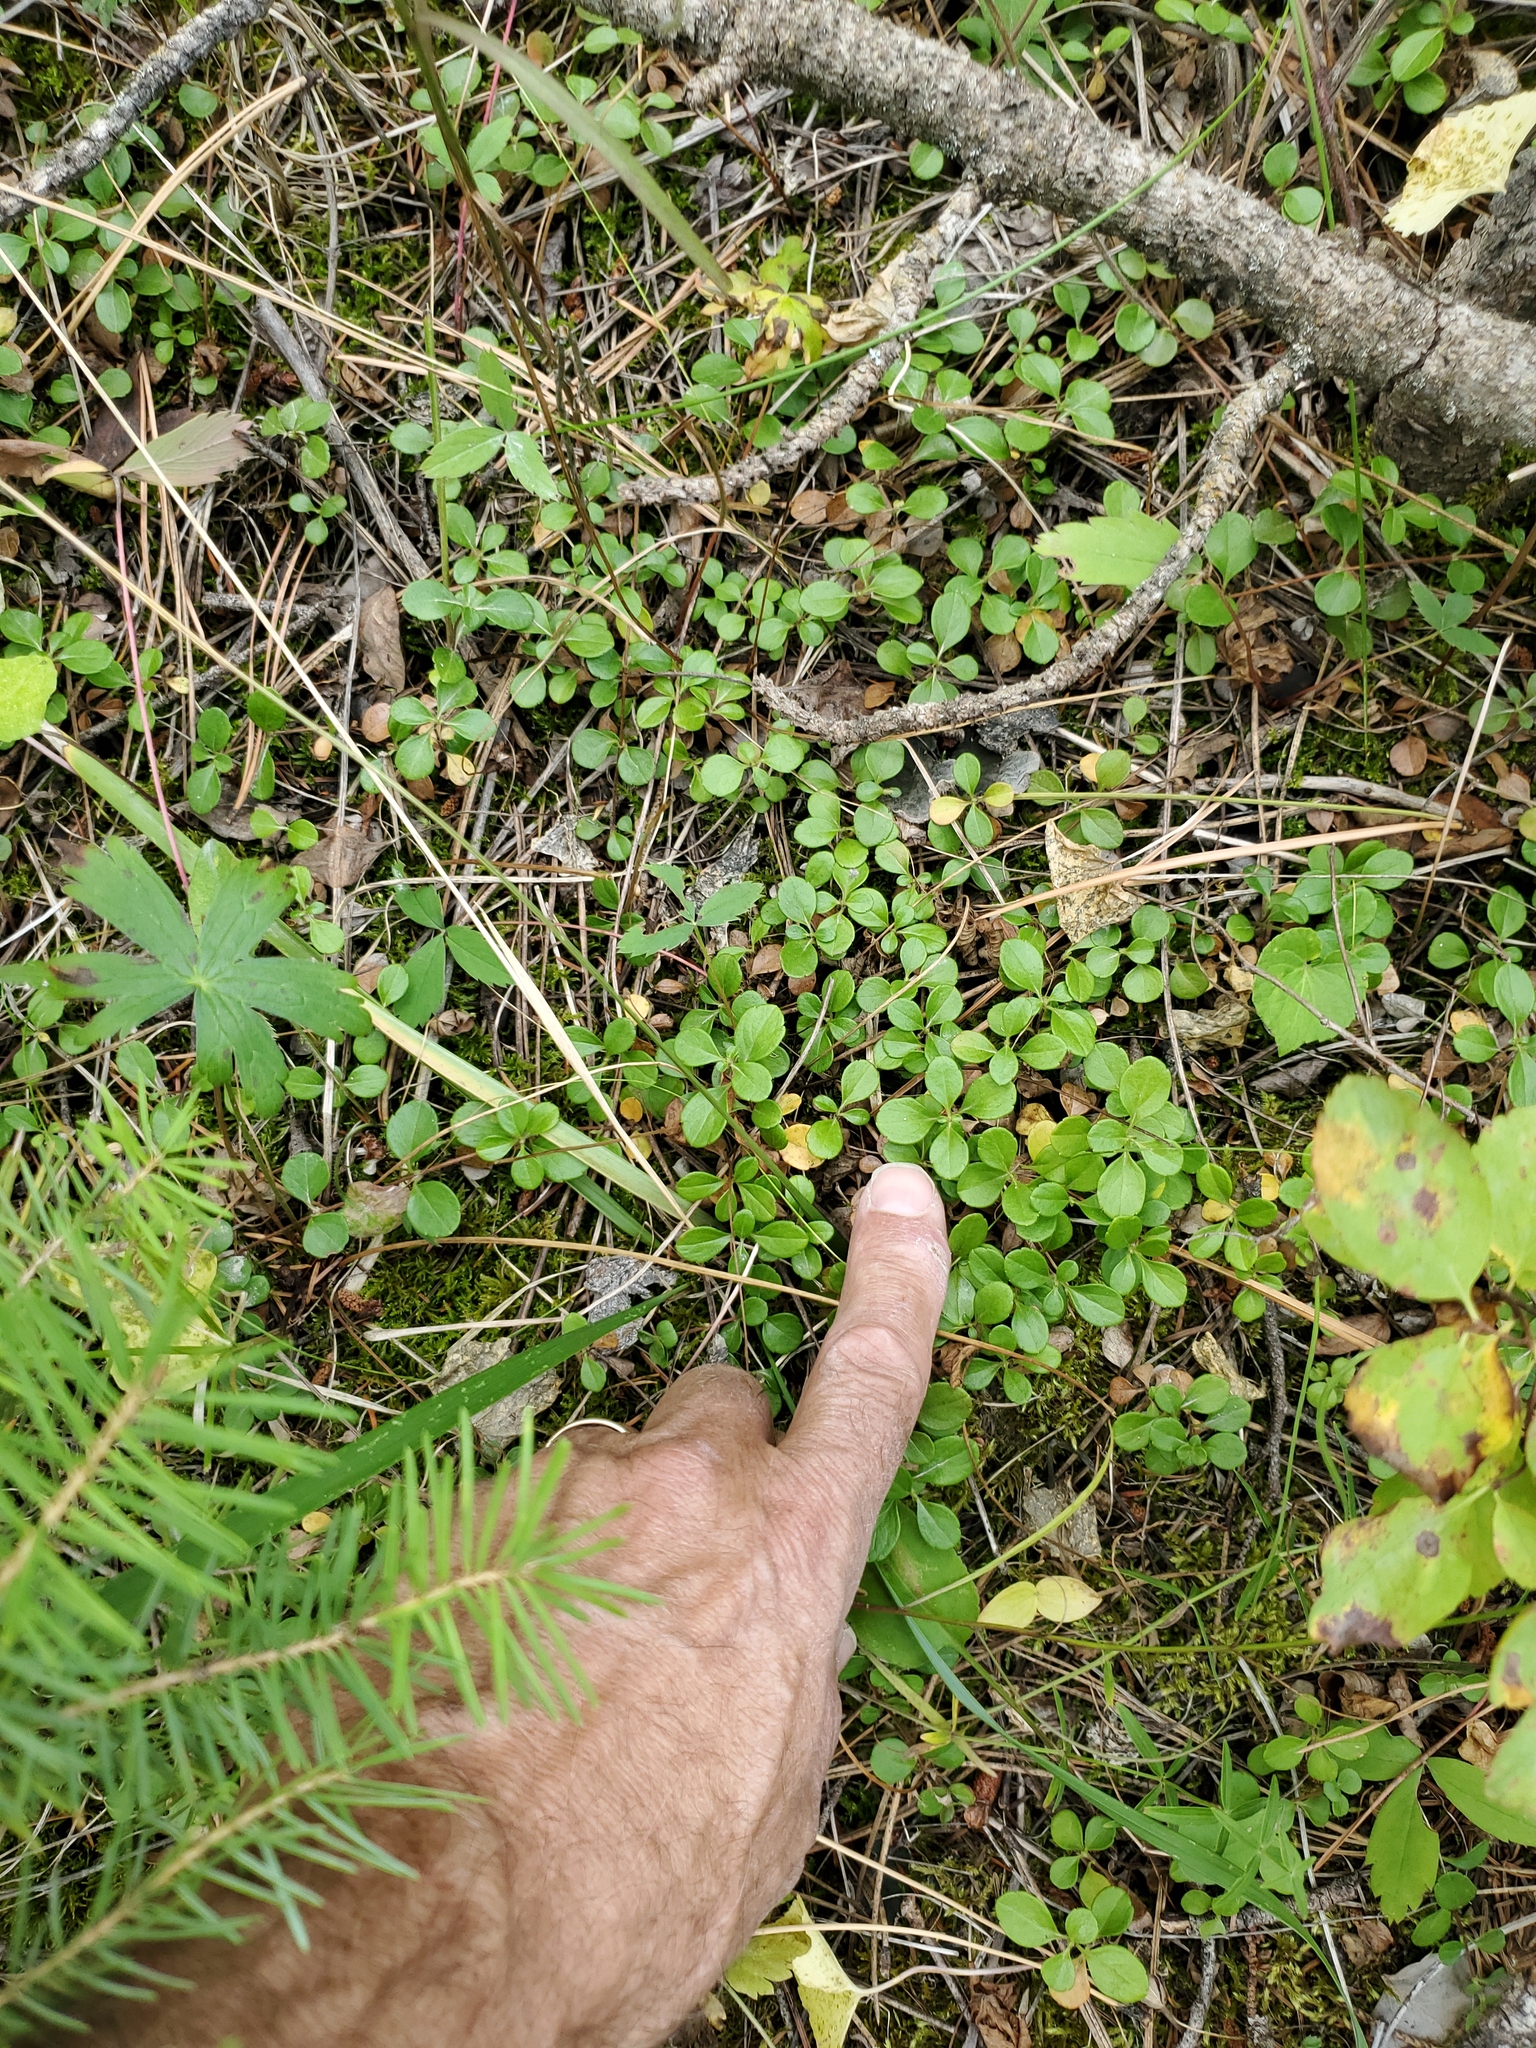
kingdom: Plantae
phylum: Tracheophyta
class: Magnoliopsida
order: Dipsacales
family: Caprifoliaceae
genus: Linnaea
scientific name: Linnaea borealis
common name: Twinflower
